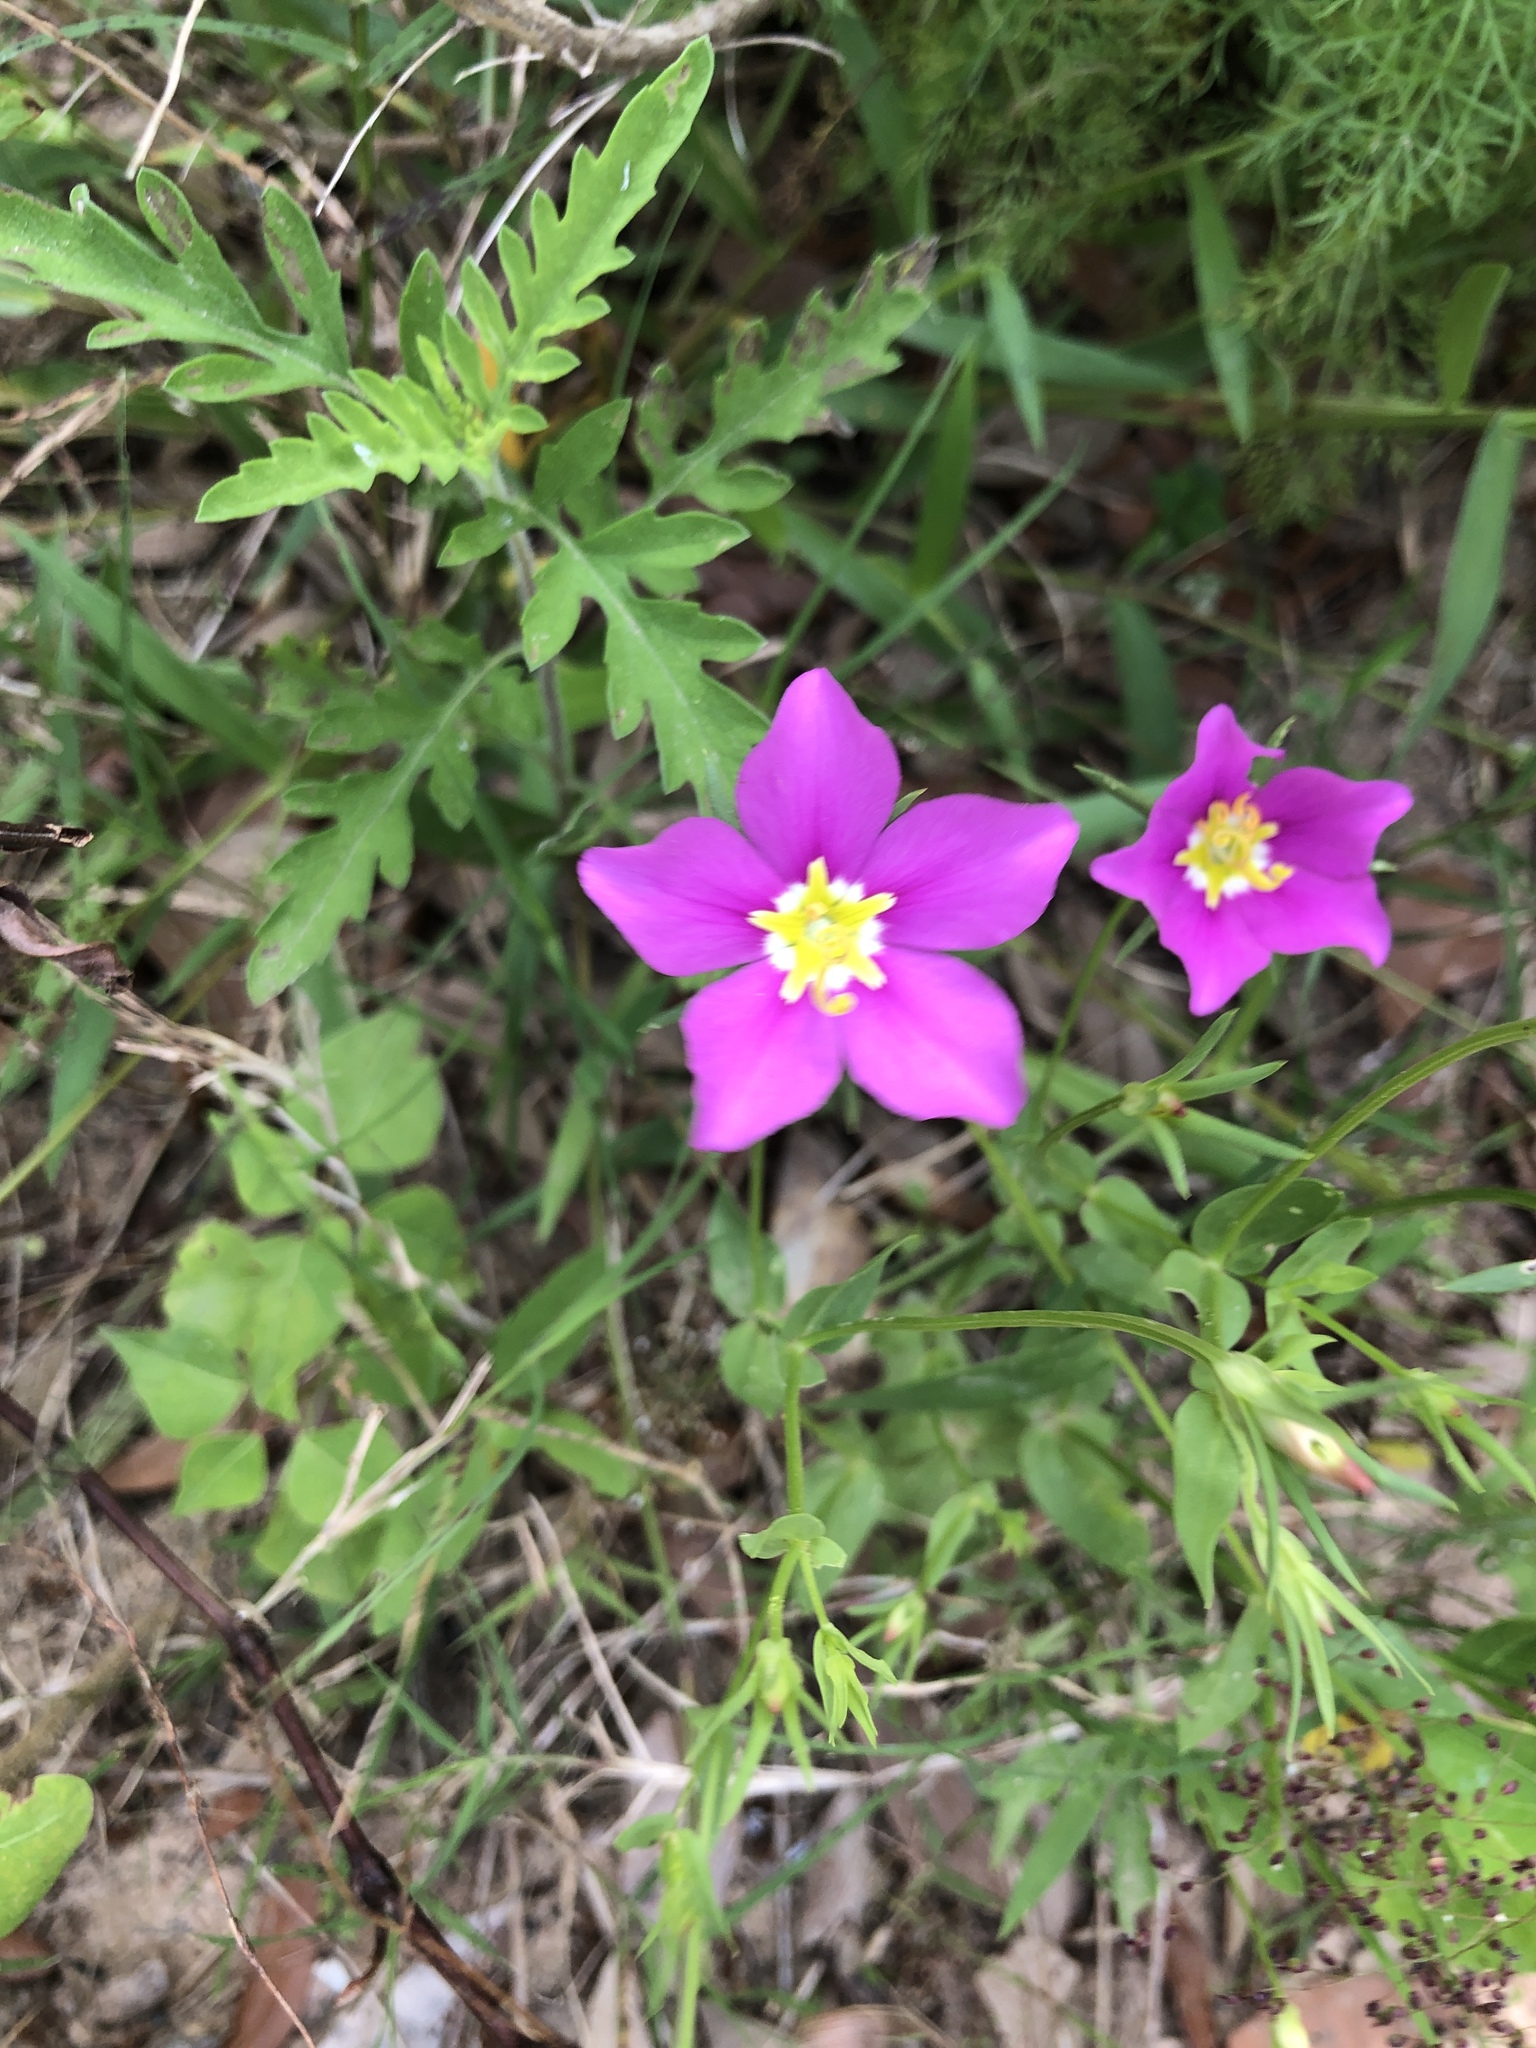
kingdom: Plantae
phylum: Tracheophyta
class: Magnoliopsida
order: Gentianales
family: Gentianaceae
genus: Sabatia
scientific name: Sabatia campestris
